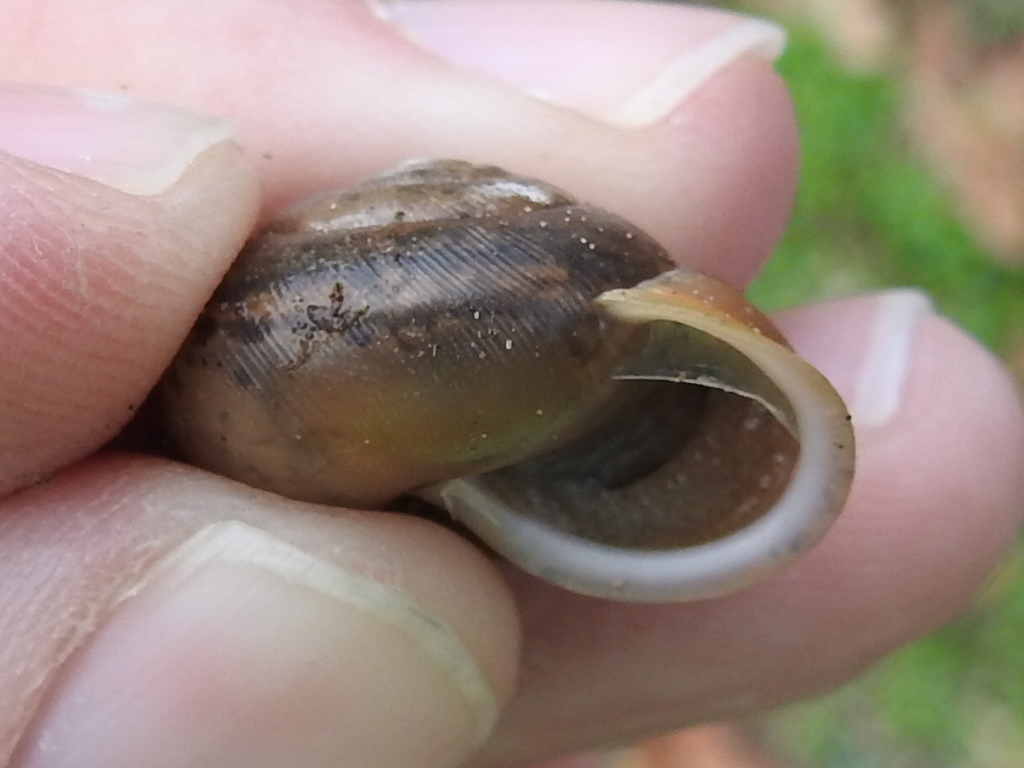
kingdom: Animalia
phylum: Mollusca
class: Gastropoda
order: Stylommatophora
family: Polygyridae
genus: Mesodon
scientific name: Mesodon thyroidus
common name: White-lip globe
